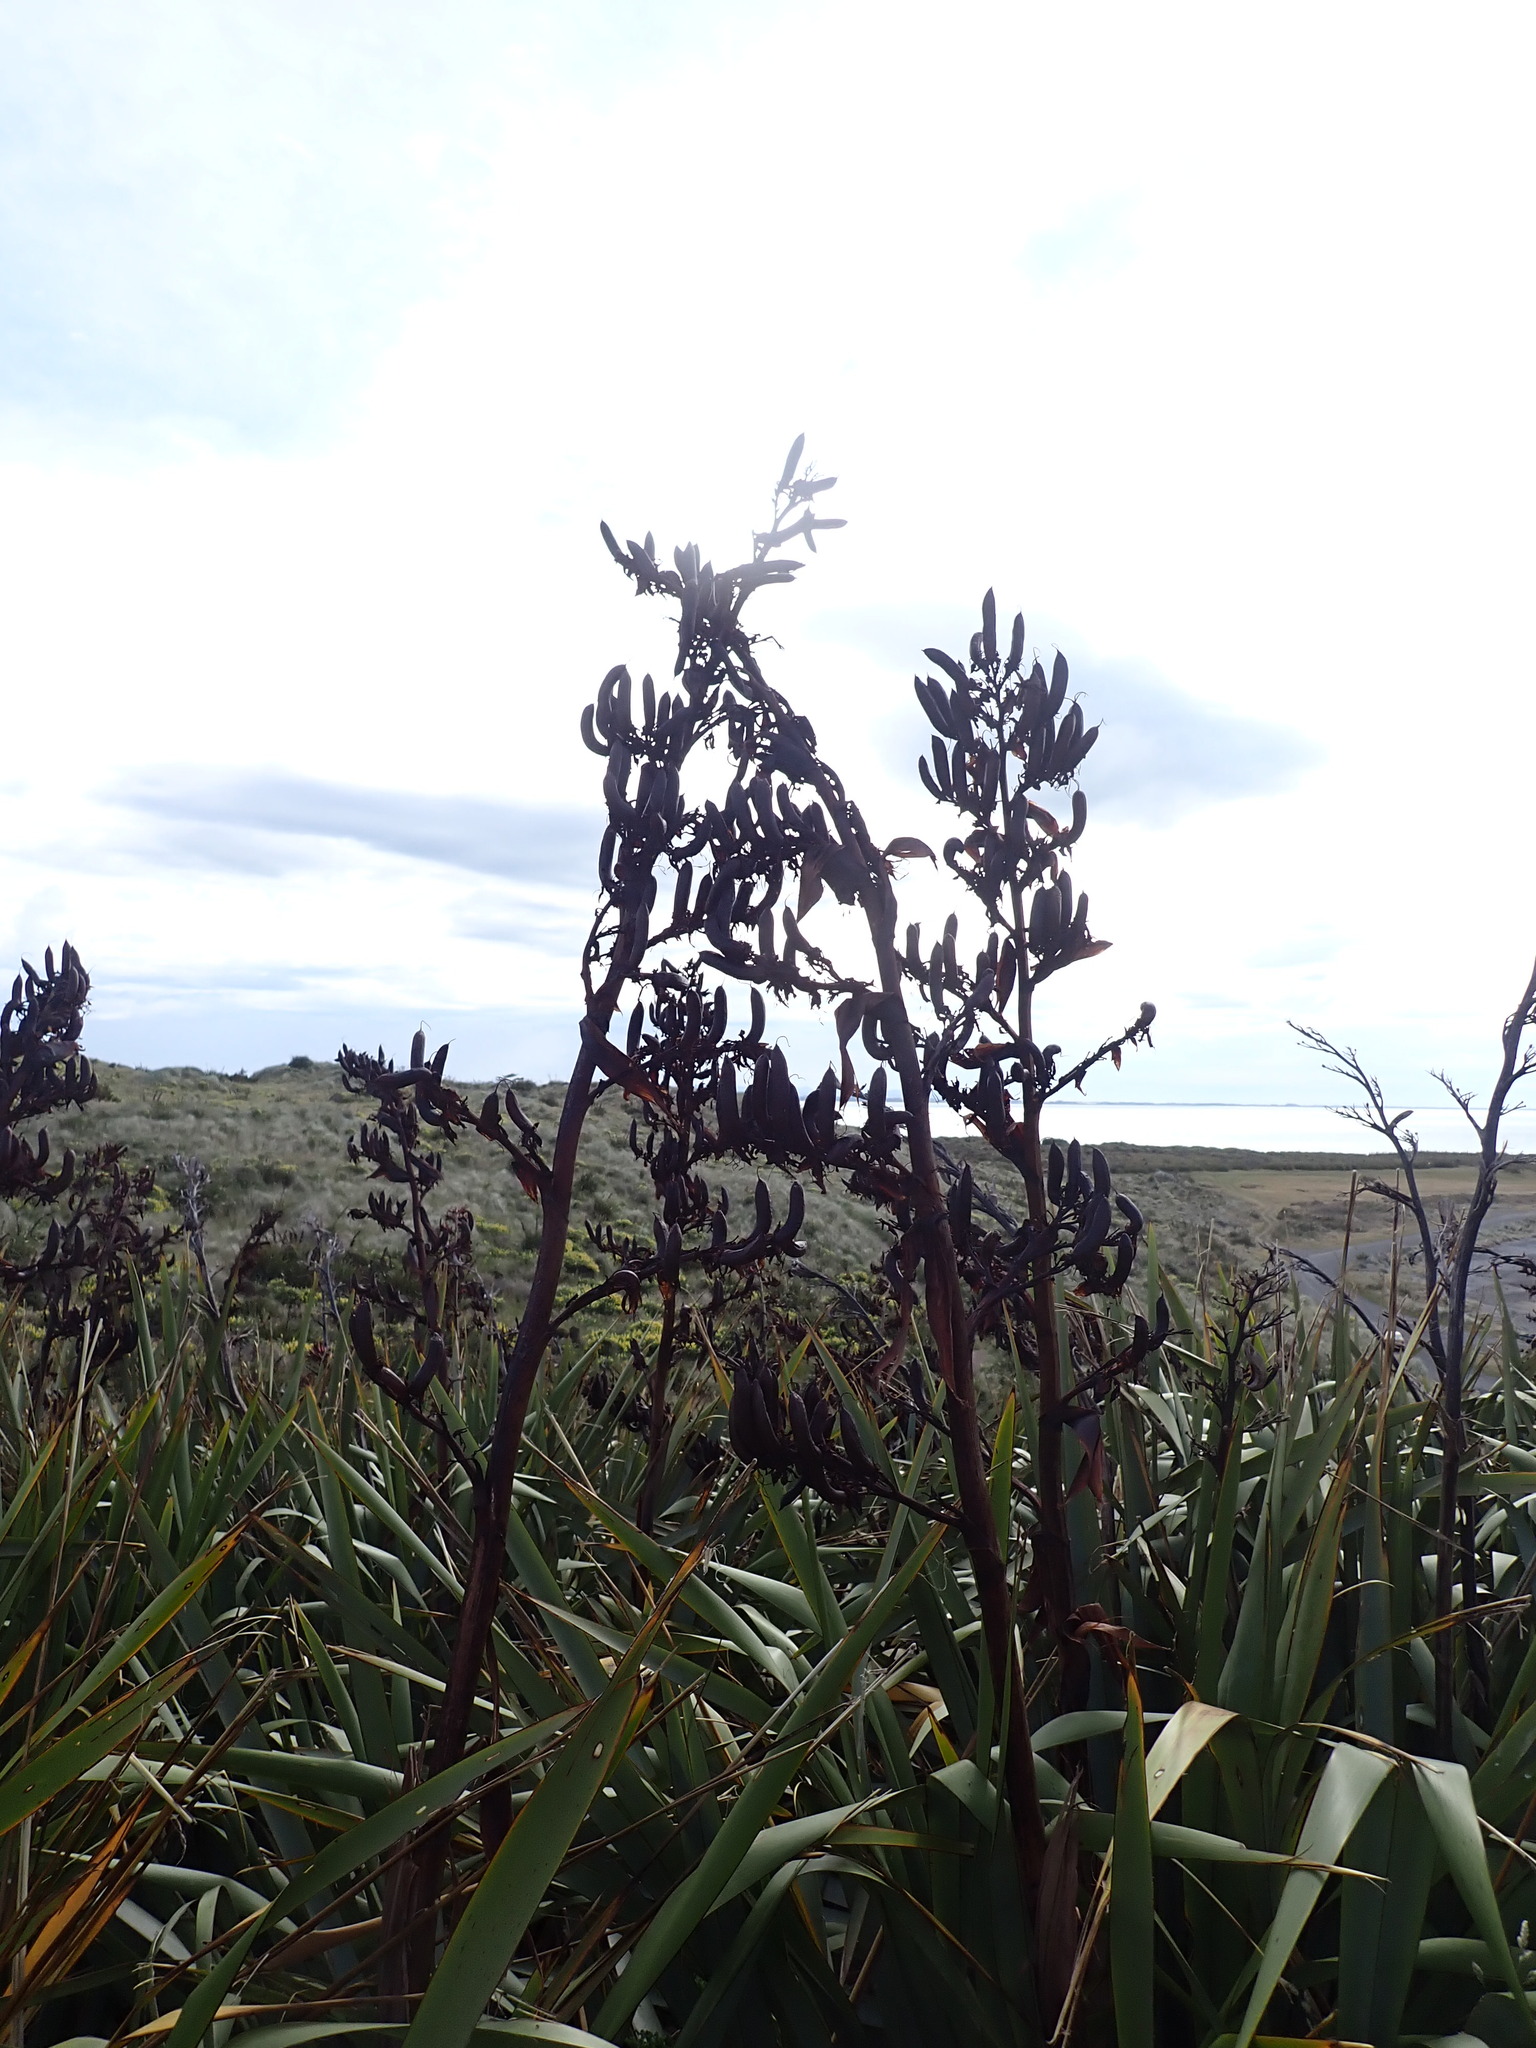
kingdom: Plantae
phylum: Tracheophyta
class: Liliopsida
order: Asparagales
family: Asphodelaceae
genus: Phormium
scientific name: Phormium tenax
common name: New zealand flax
